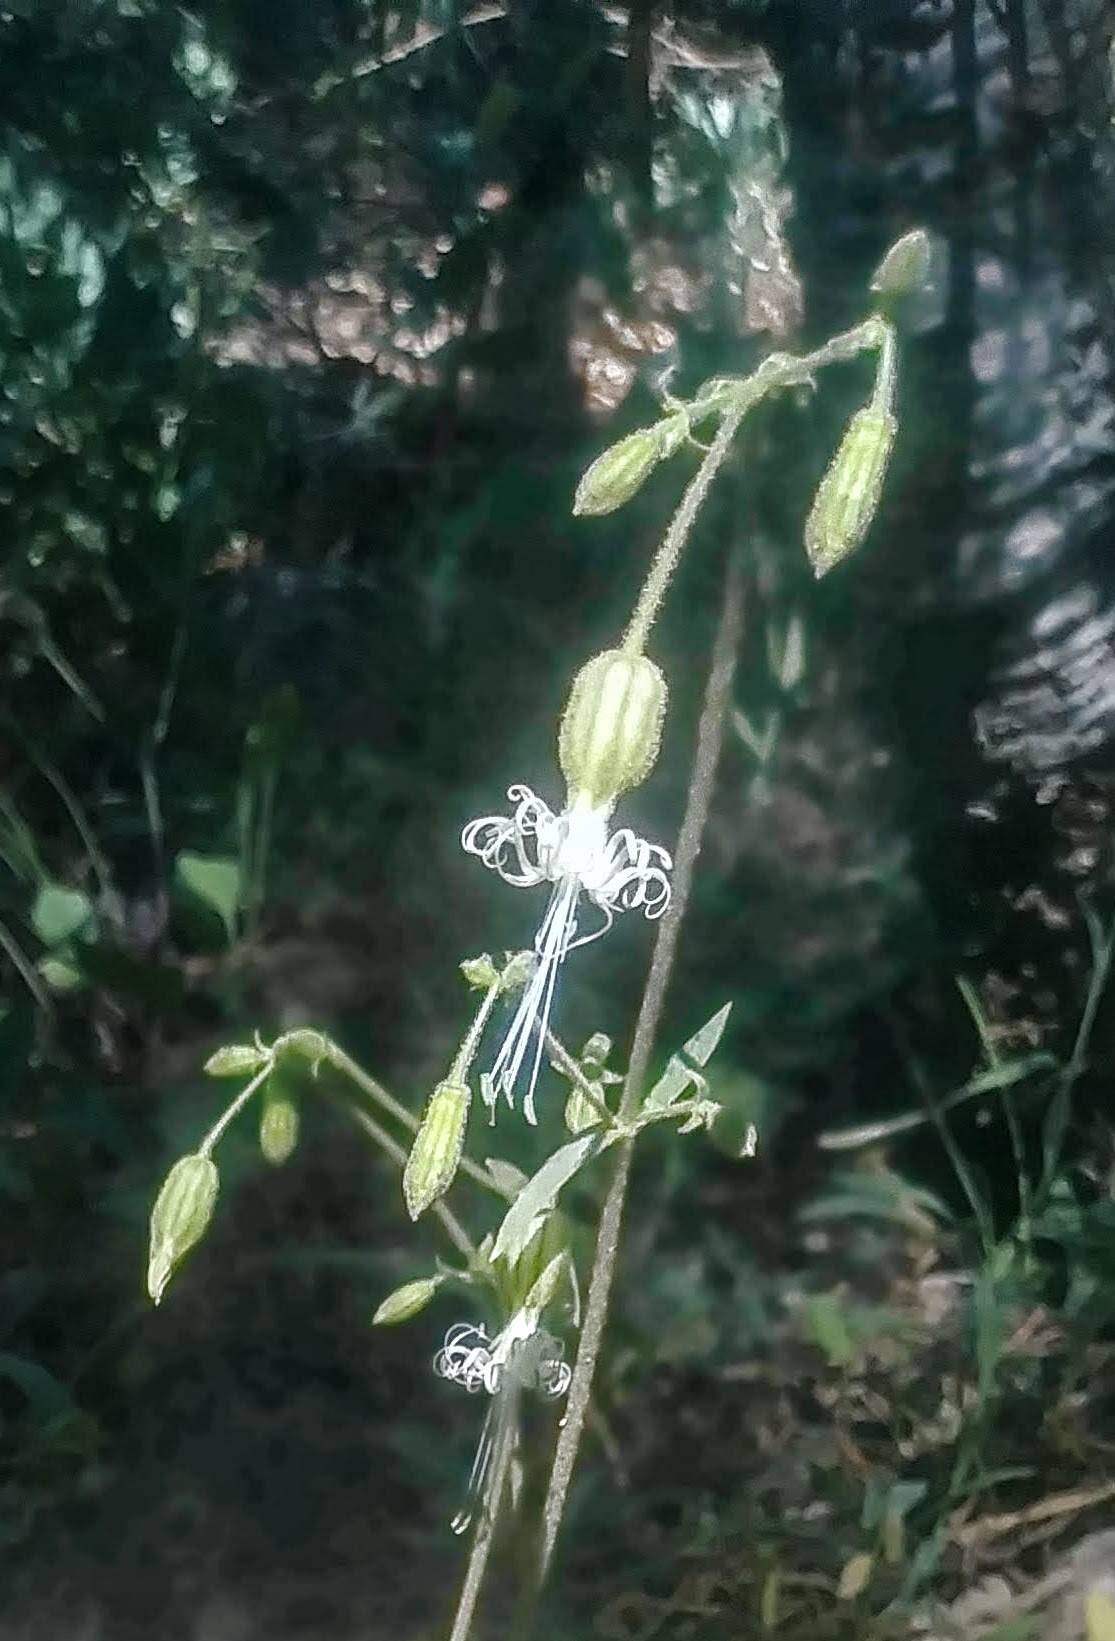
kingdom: Plantae
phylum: Tracheophyta
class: Magnoliopsida
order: Caryophyllales
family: Caryophyllaceae
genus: Silene
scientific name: Silene lemmonii
